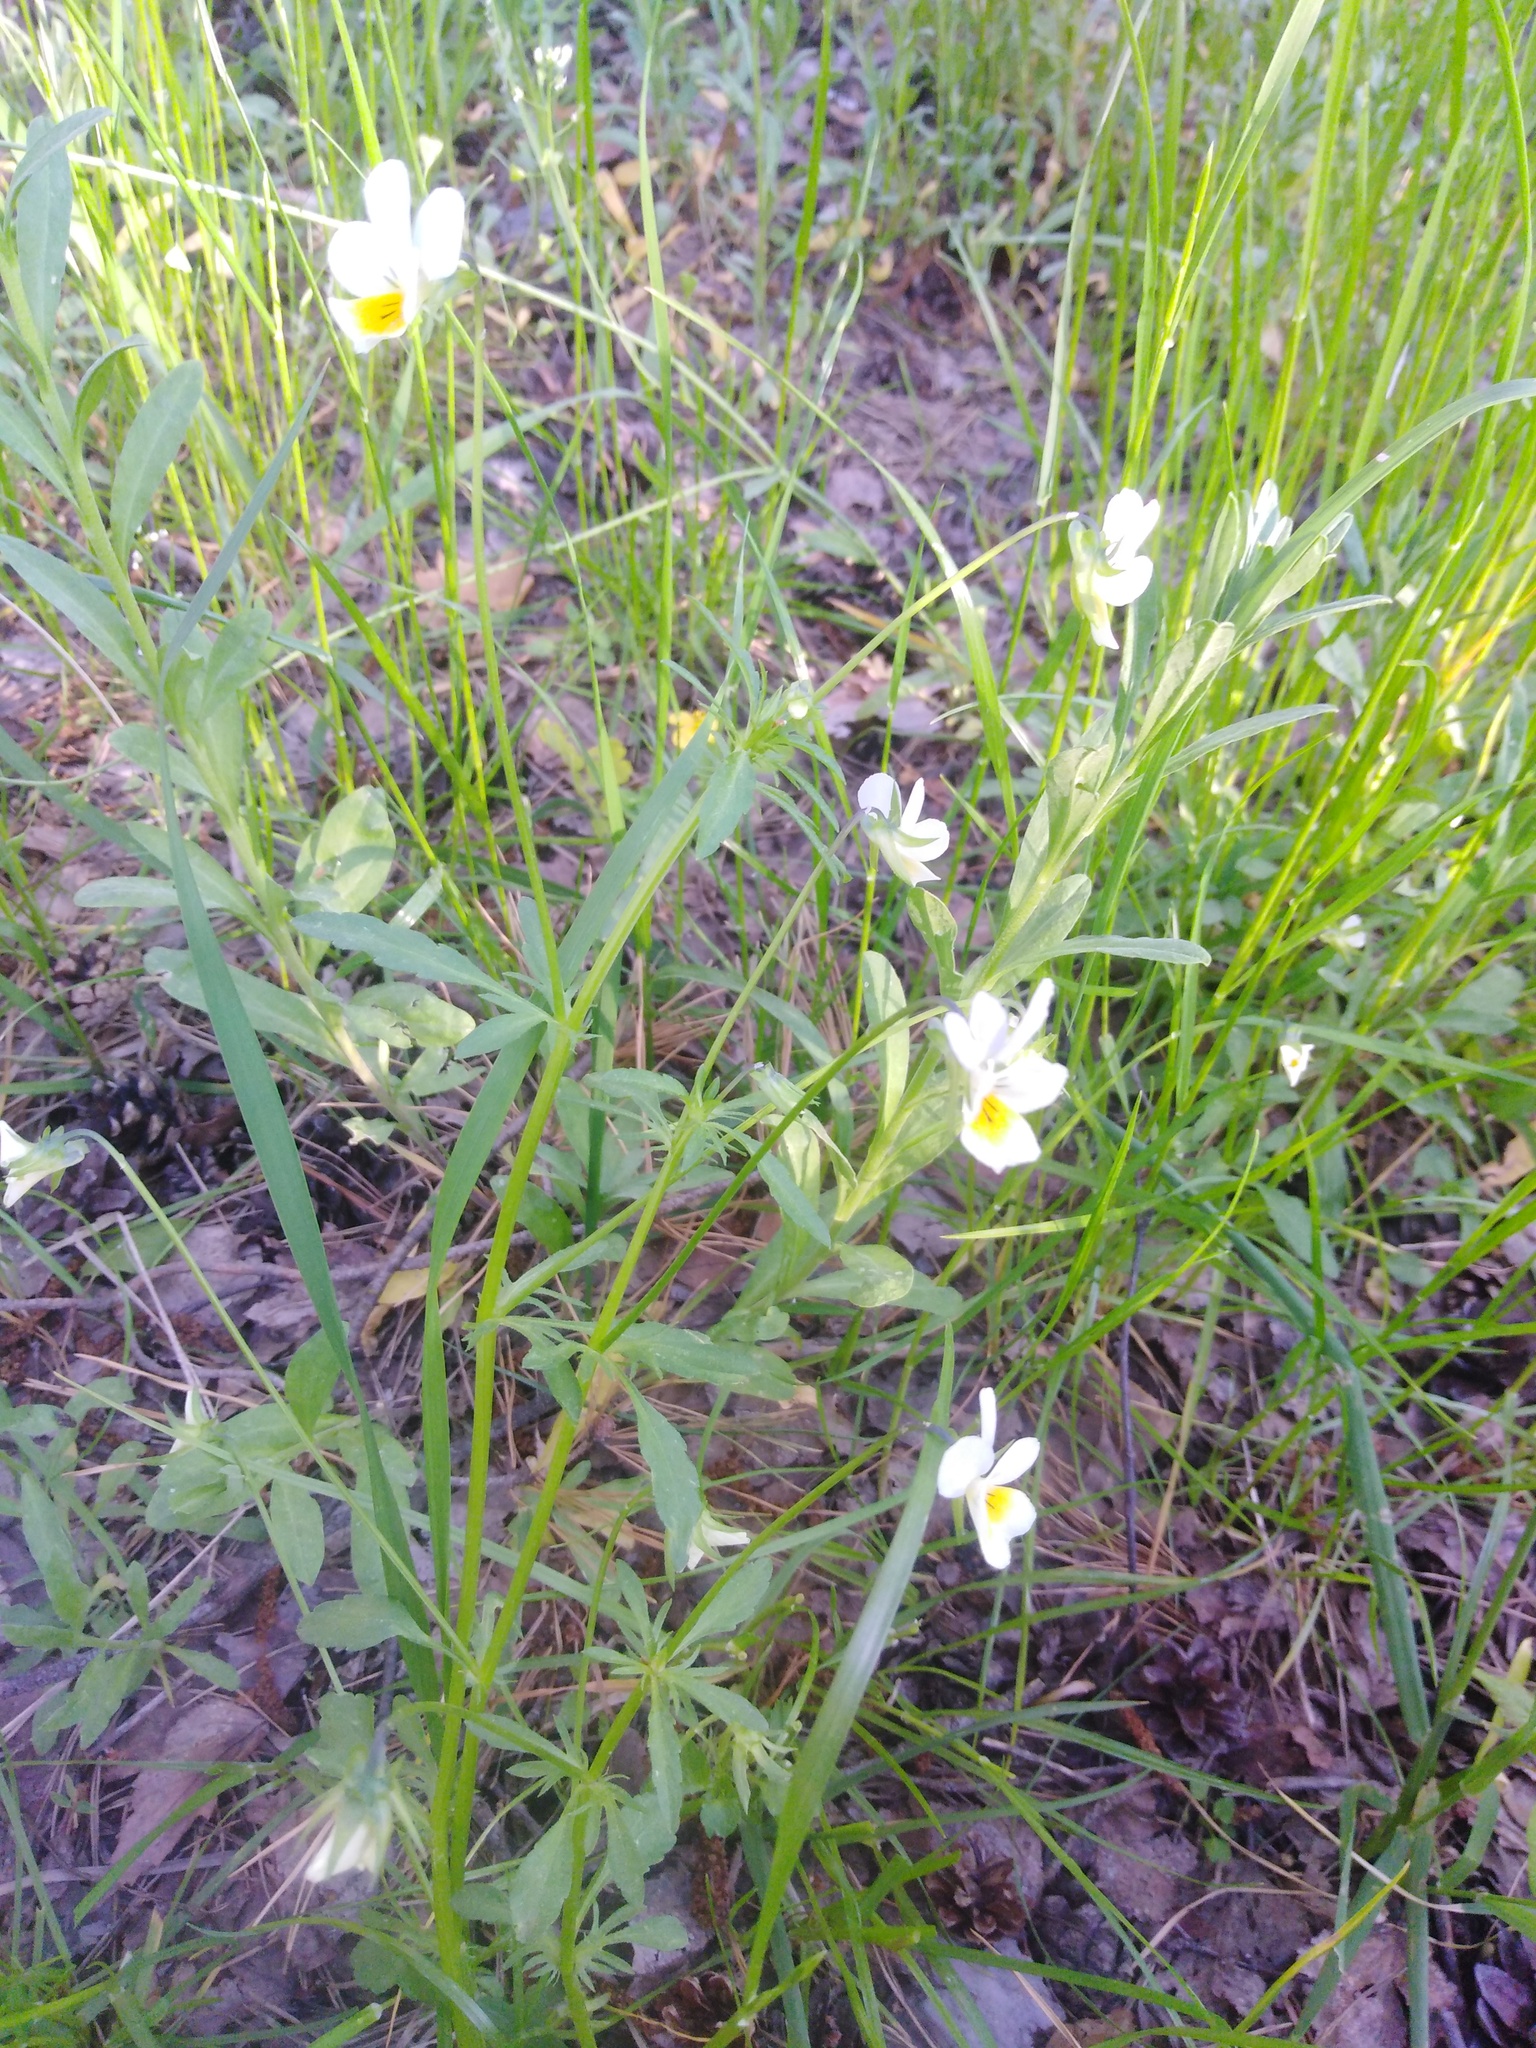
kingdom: Plantae
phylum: Tracheophyta
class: Magnoliopsida
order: Malpighiales
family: Violaceae
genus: Viola
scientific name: Viola tricolor
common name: Pansy
